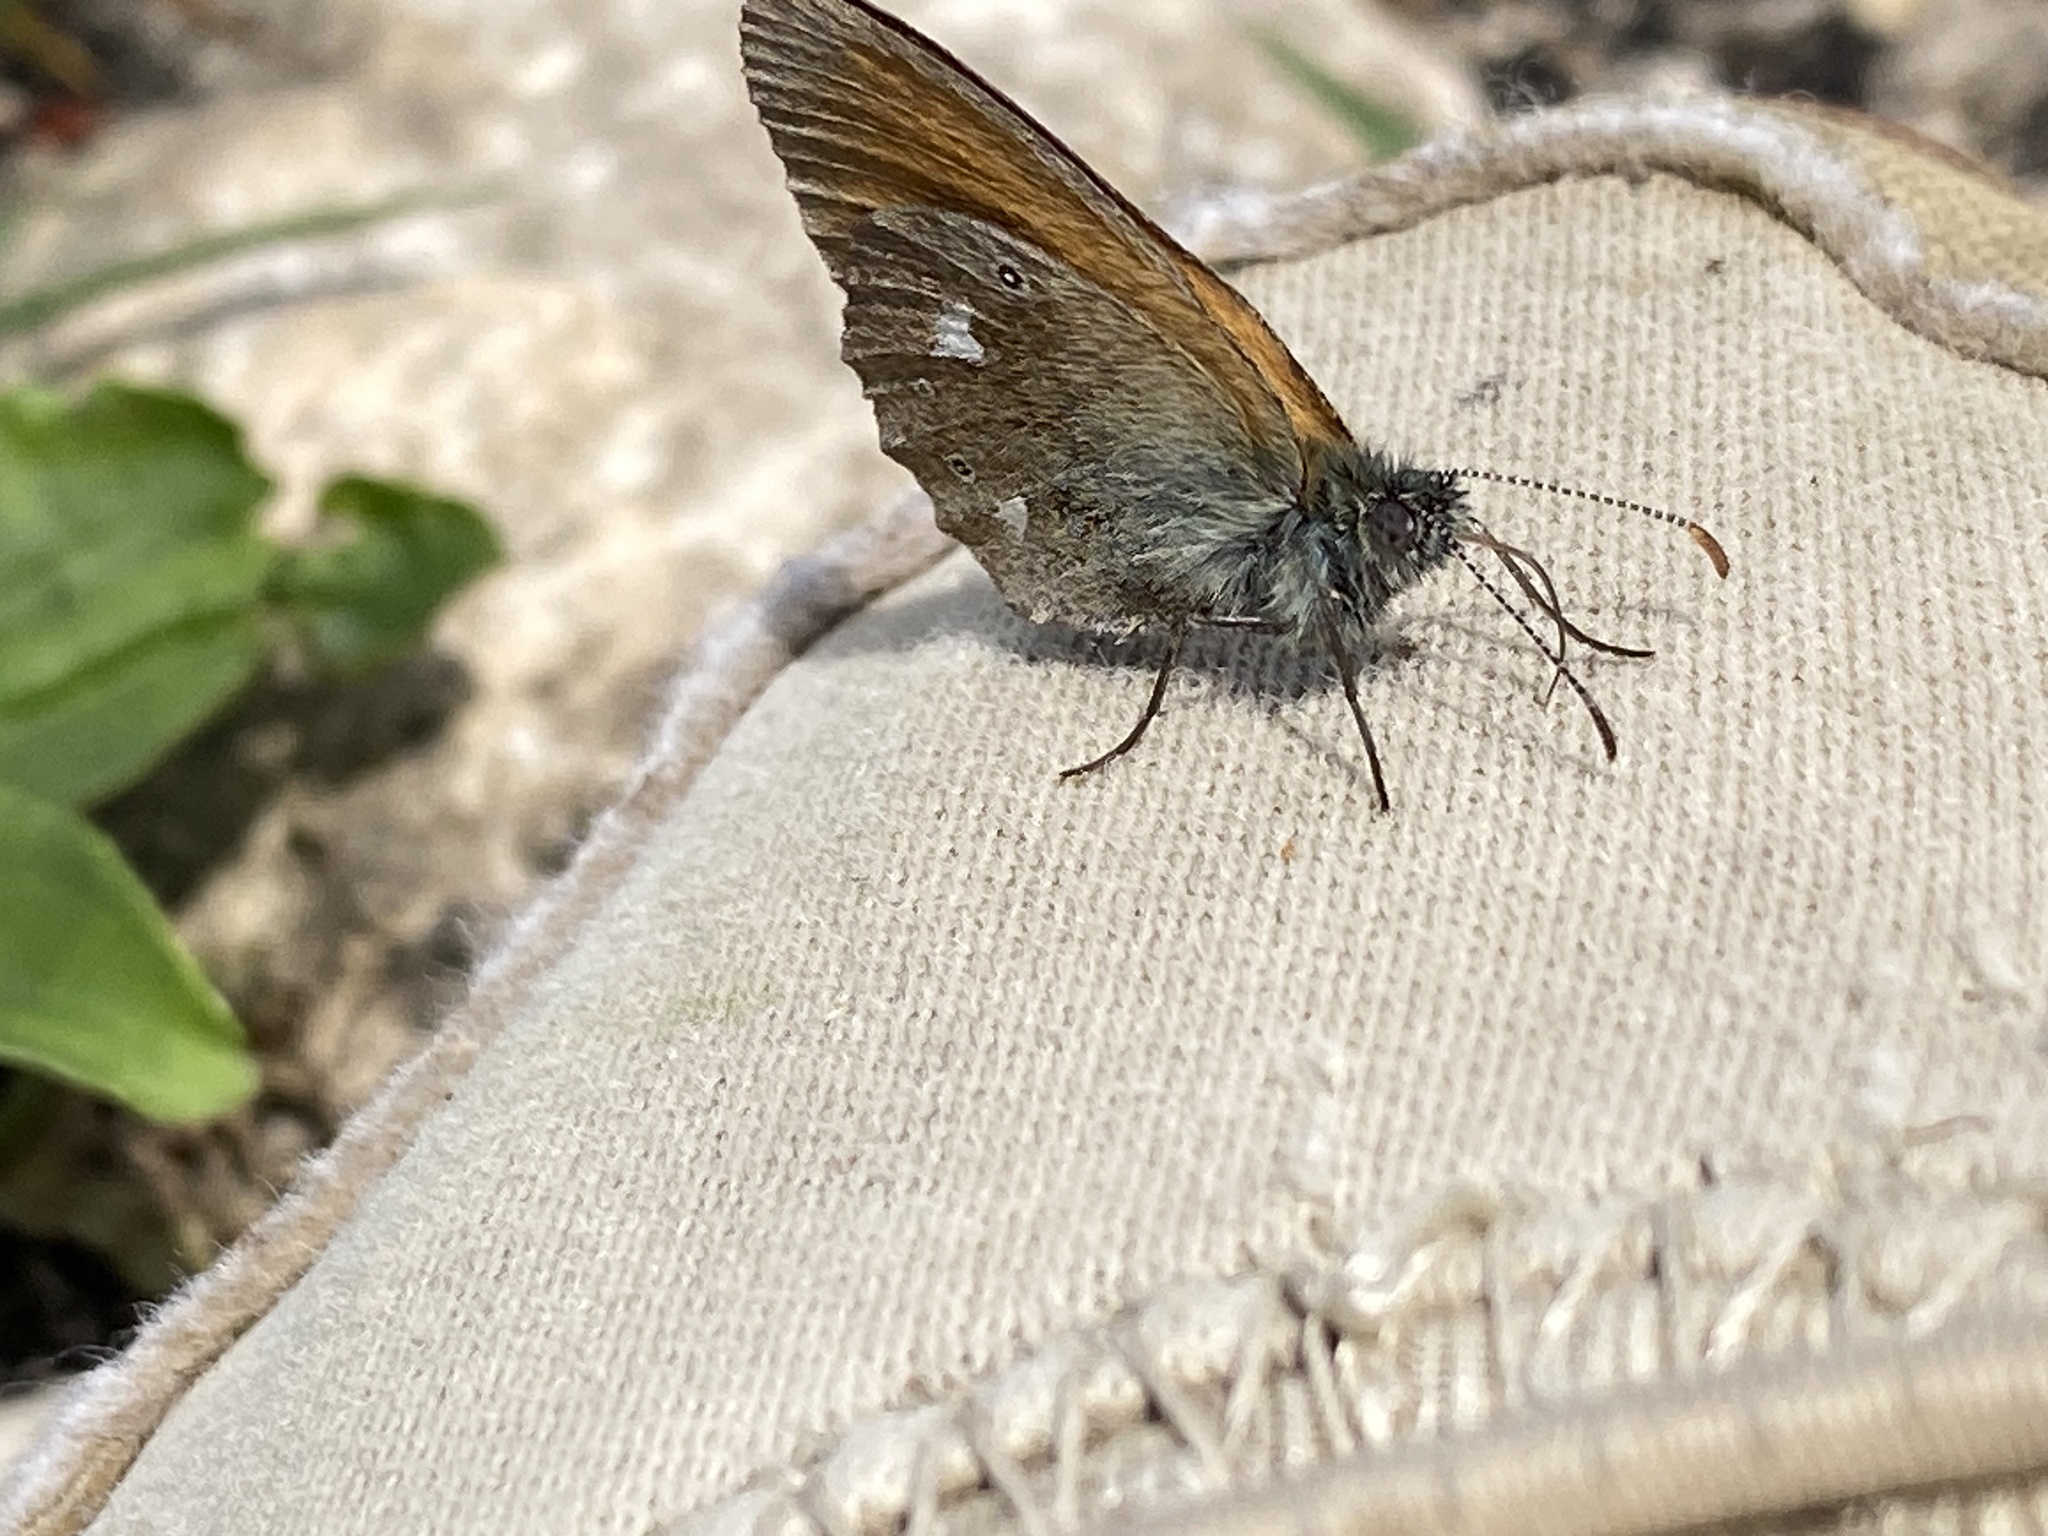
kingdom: Animalia
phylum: Arthropoda
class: Insecta
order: Lepidoptera
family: Nymphalidae
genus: Coenonympha
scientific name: Coenonympha iphis
